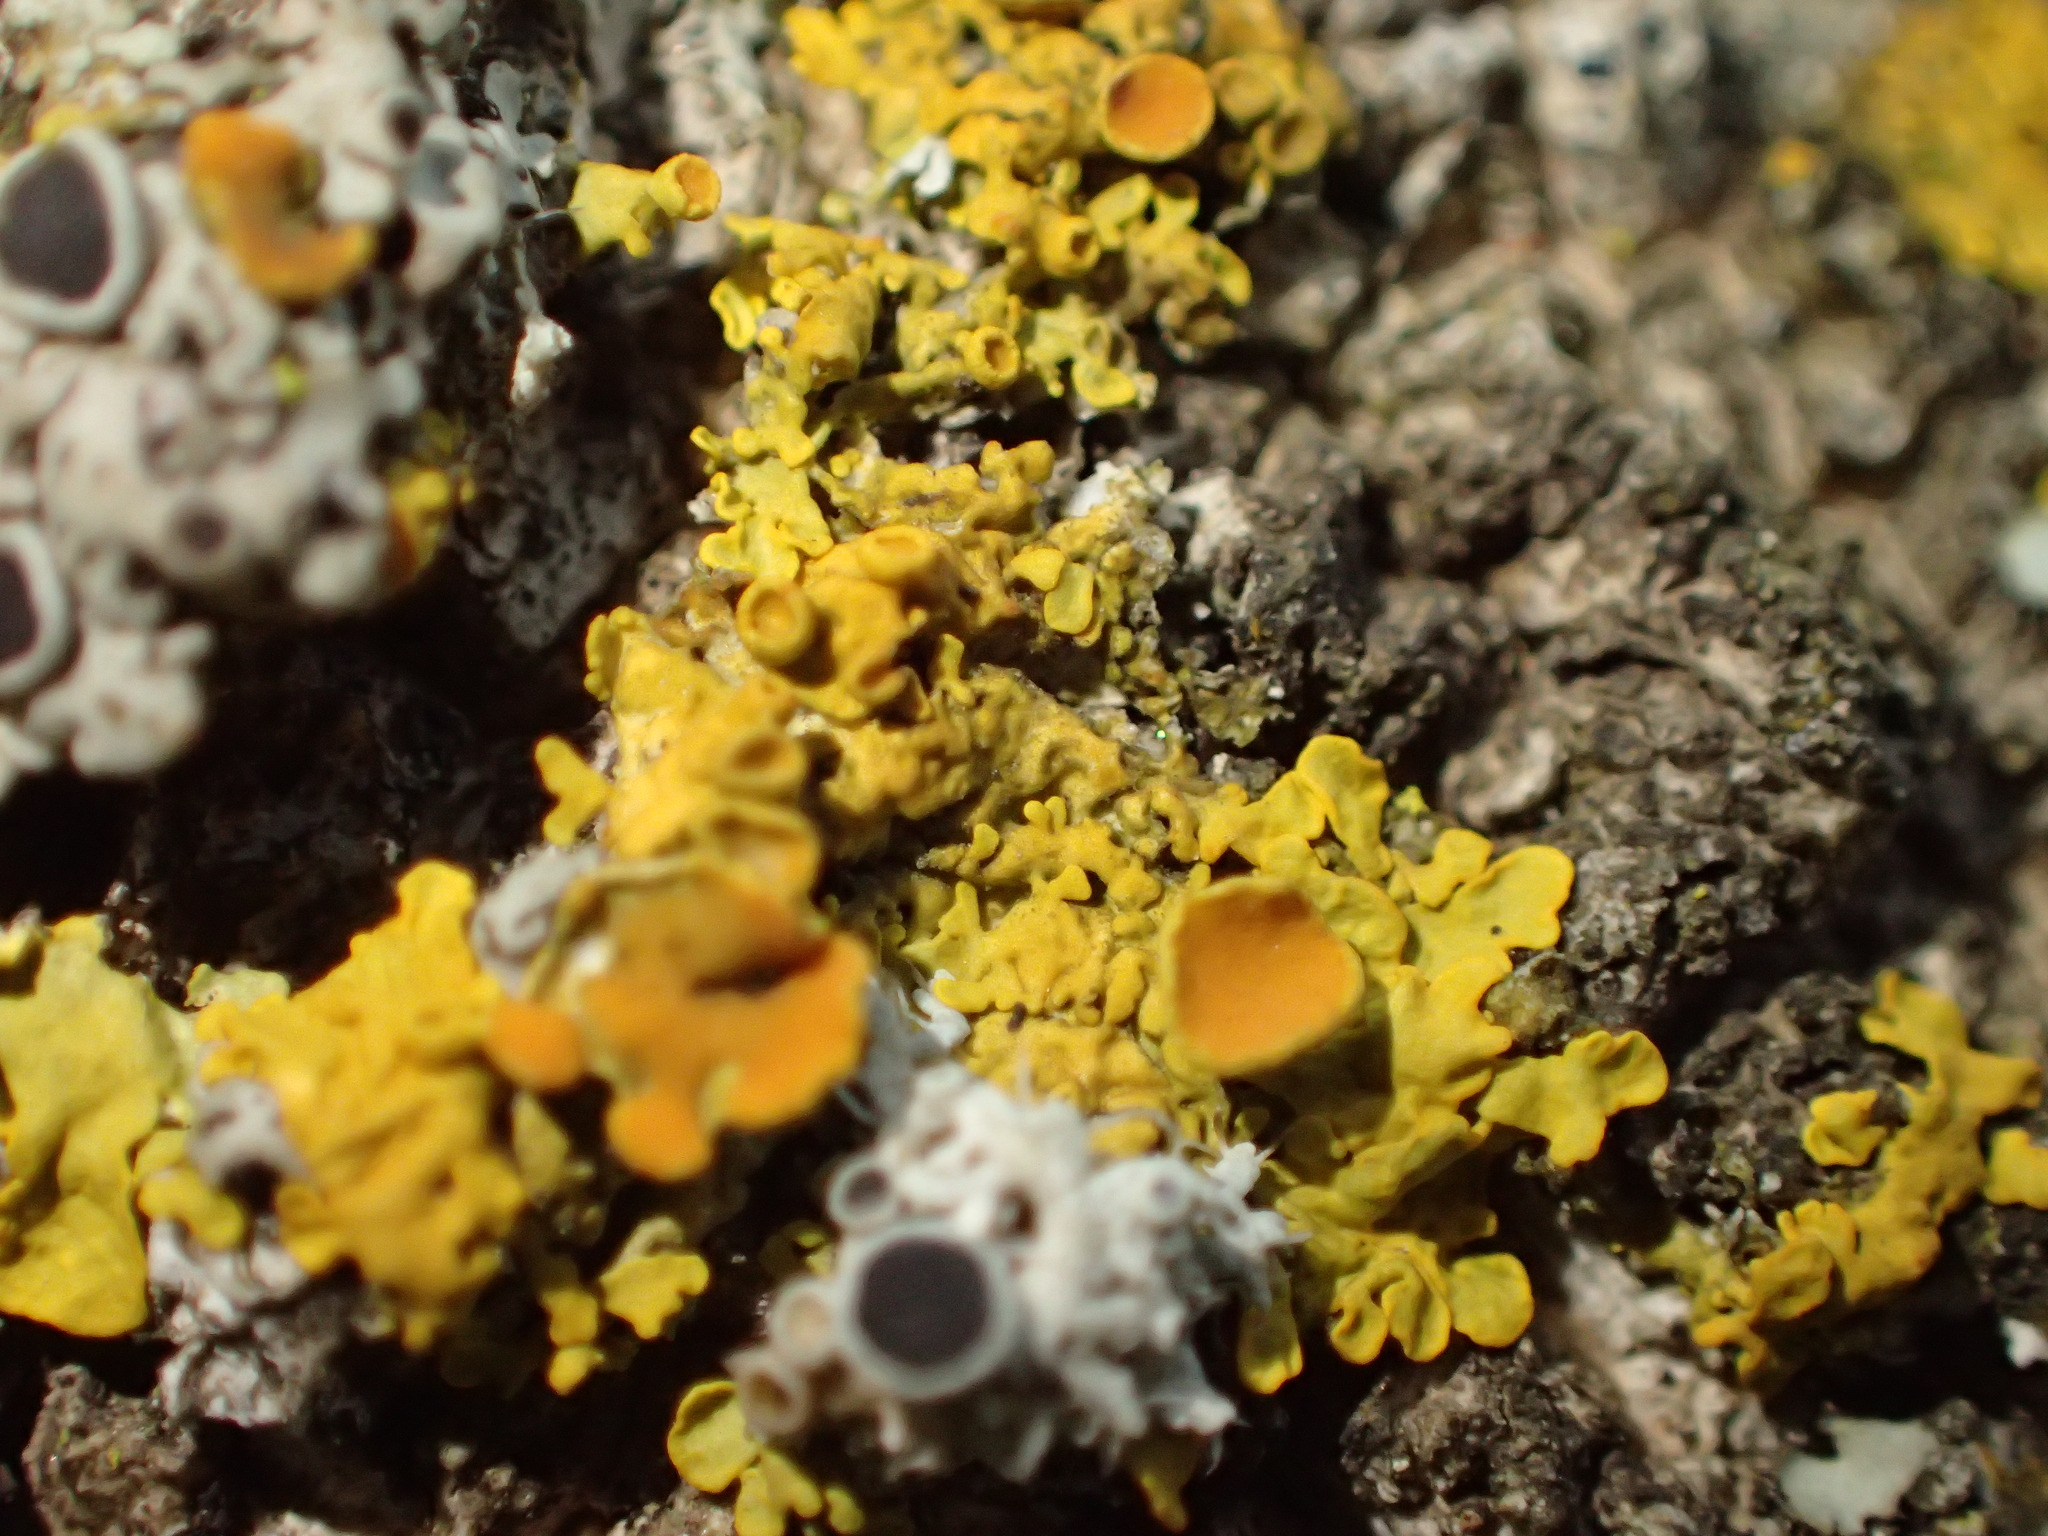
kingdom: Fungi
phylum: Ascomycota
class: Lecanoromycetes
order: Teloschistales
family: Teloschistaceae
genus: Xanthoria
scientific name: Xanthoria parietina
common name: Common orange lichen
